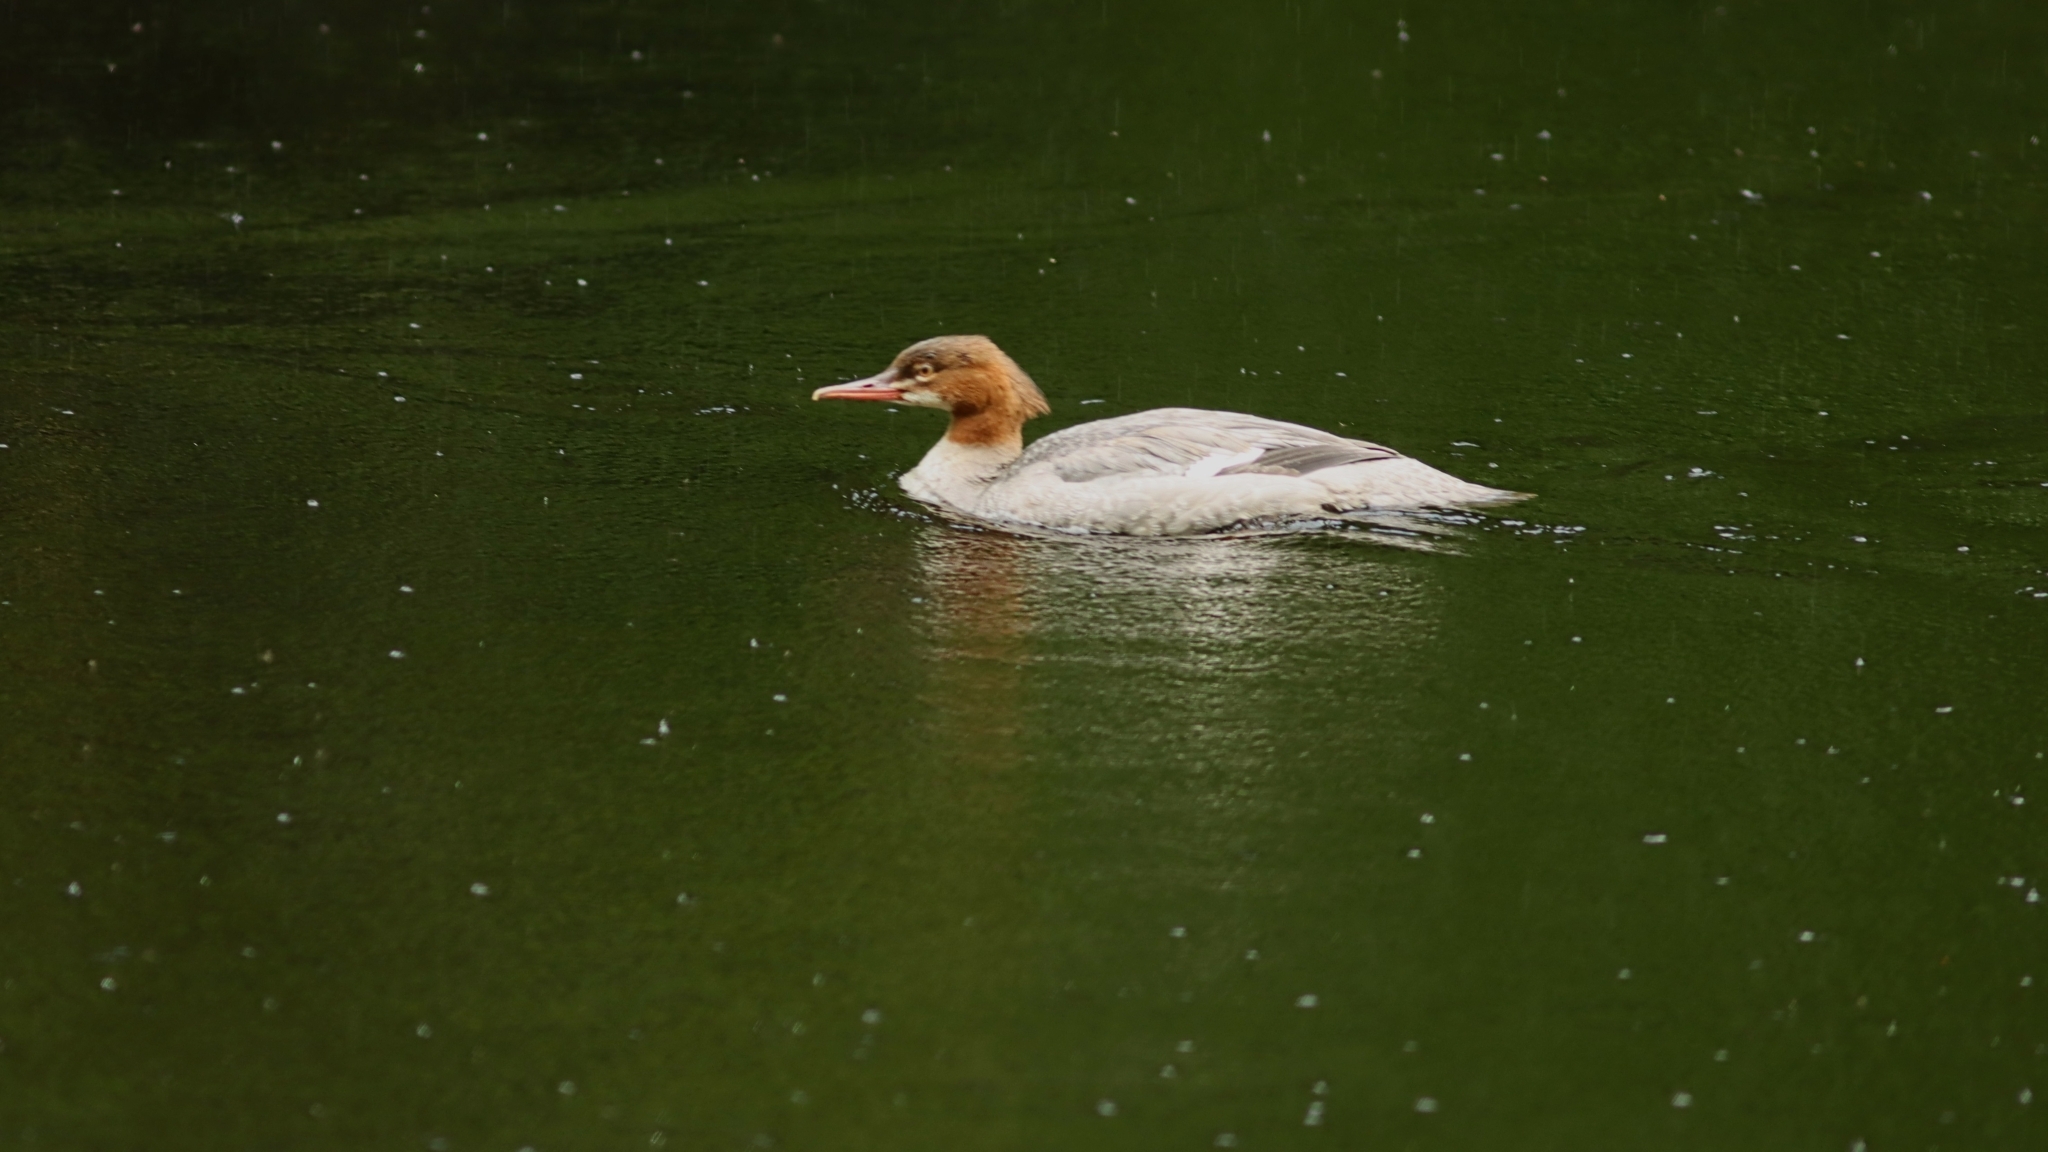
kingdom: Animalia
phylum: Chordata
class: Aves
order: Anseriformes
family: Anatidae
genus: Mergus
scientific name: Mergus merganser
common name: Common merganser
